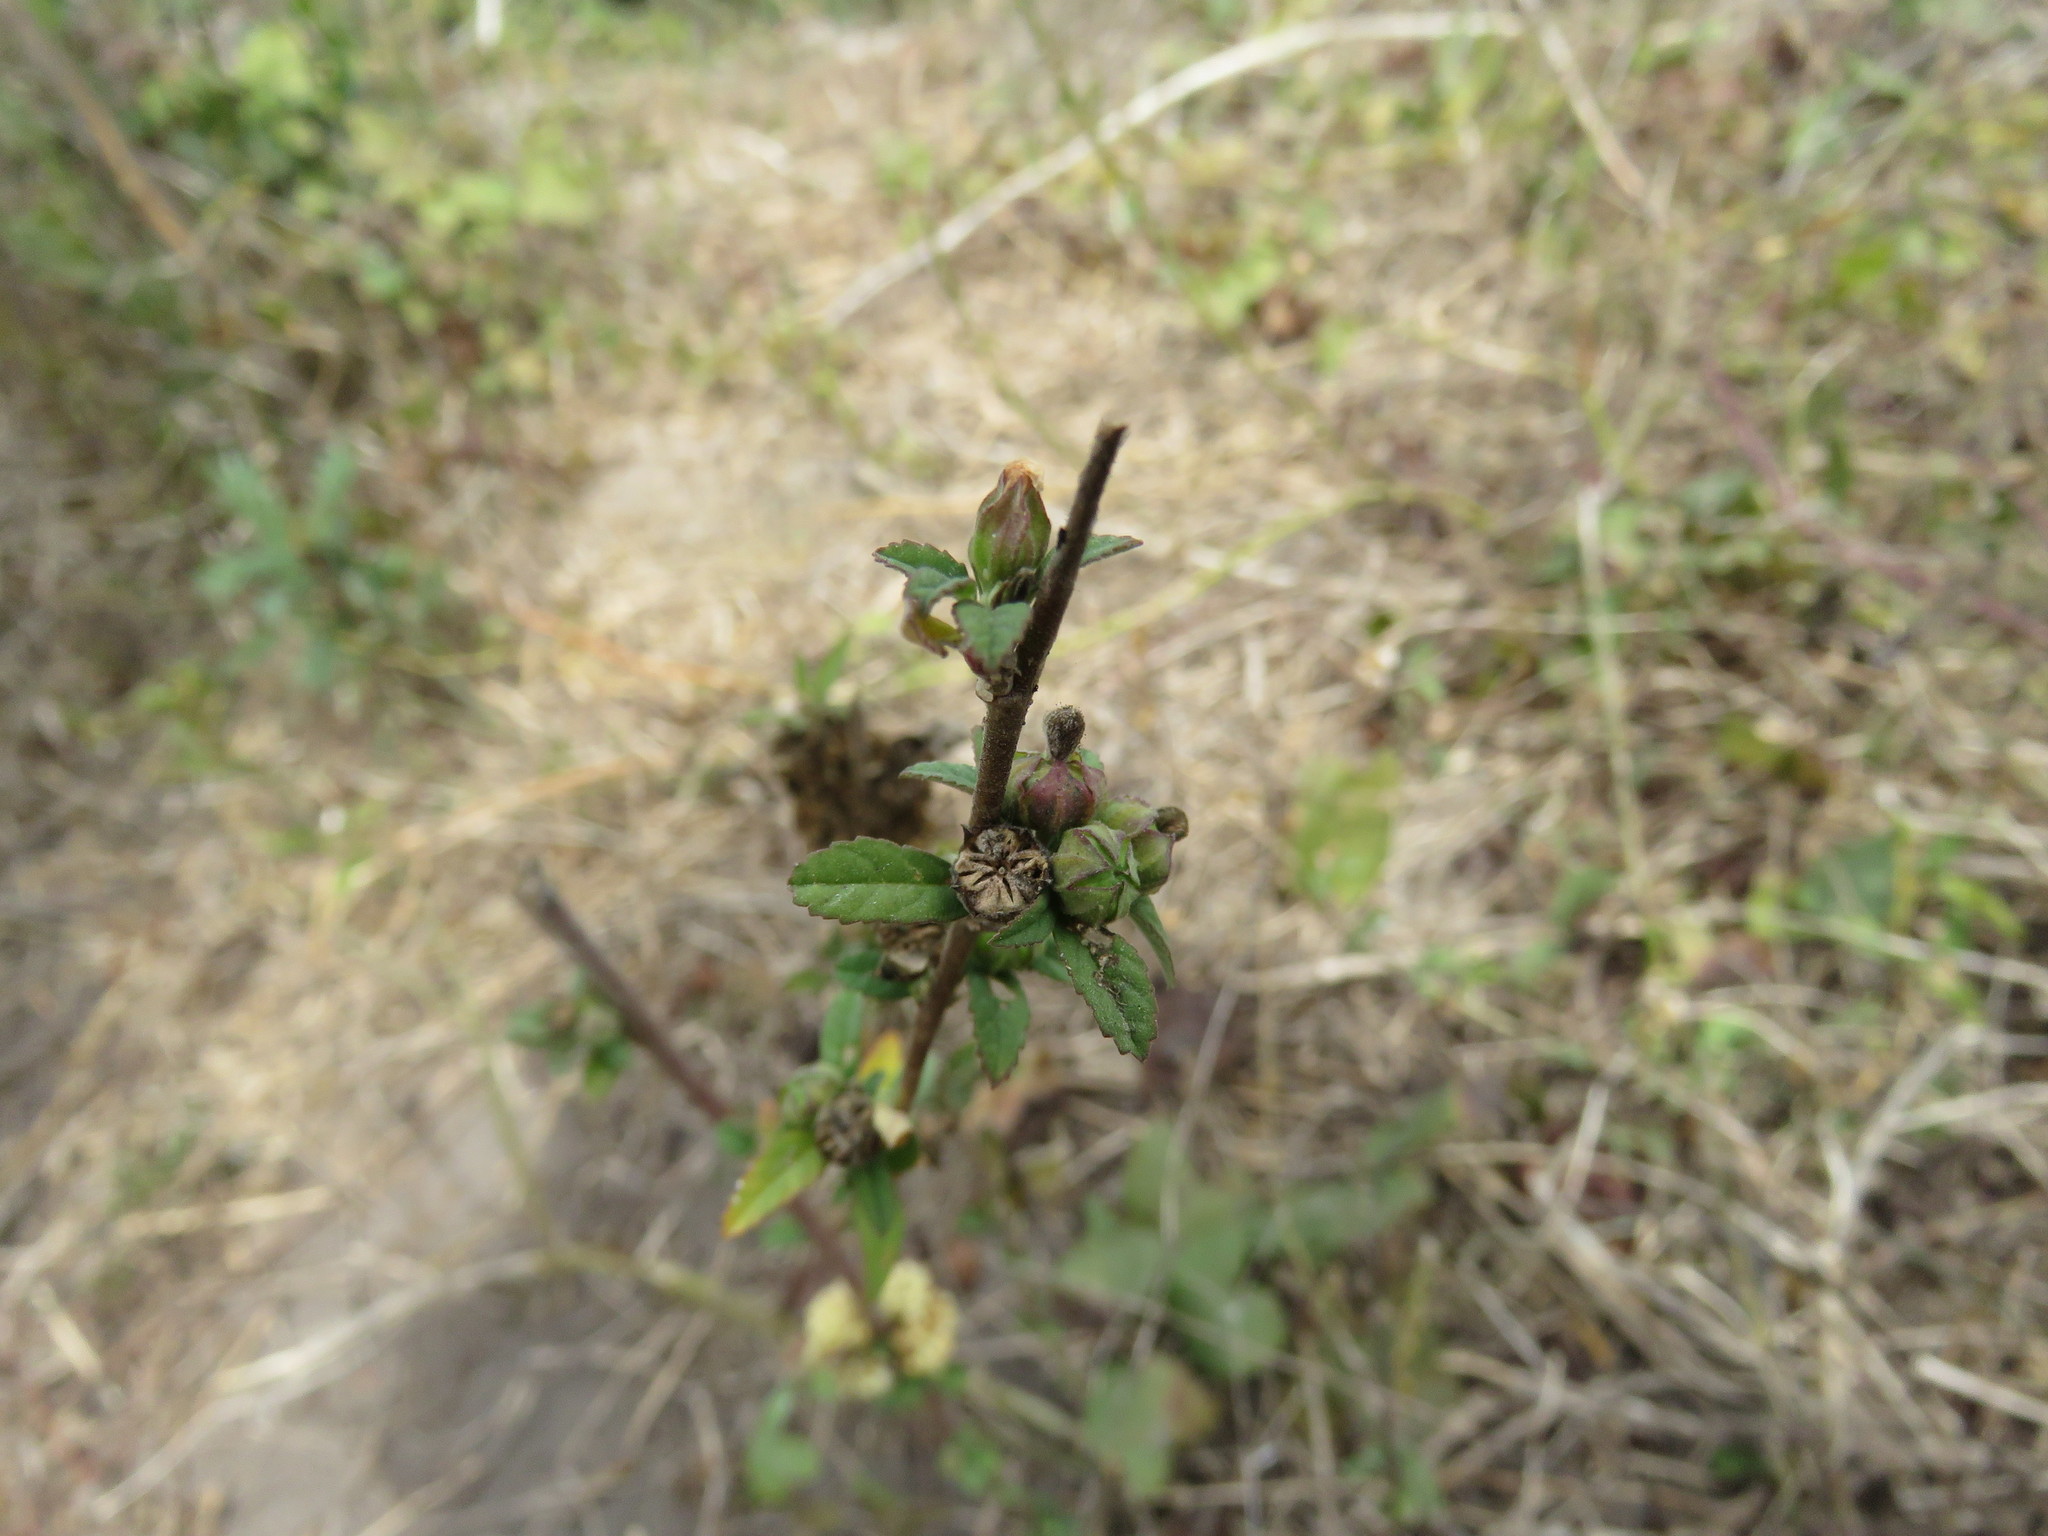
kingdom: Plantae
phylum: Tracheophyta
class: Magnoliopsida
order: Malvales
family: Malvaceae
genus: Sida
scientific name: Sida rhombifolia
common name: Queensland-hemp
